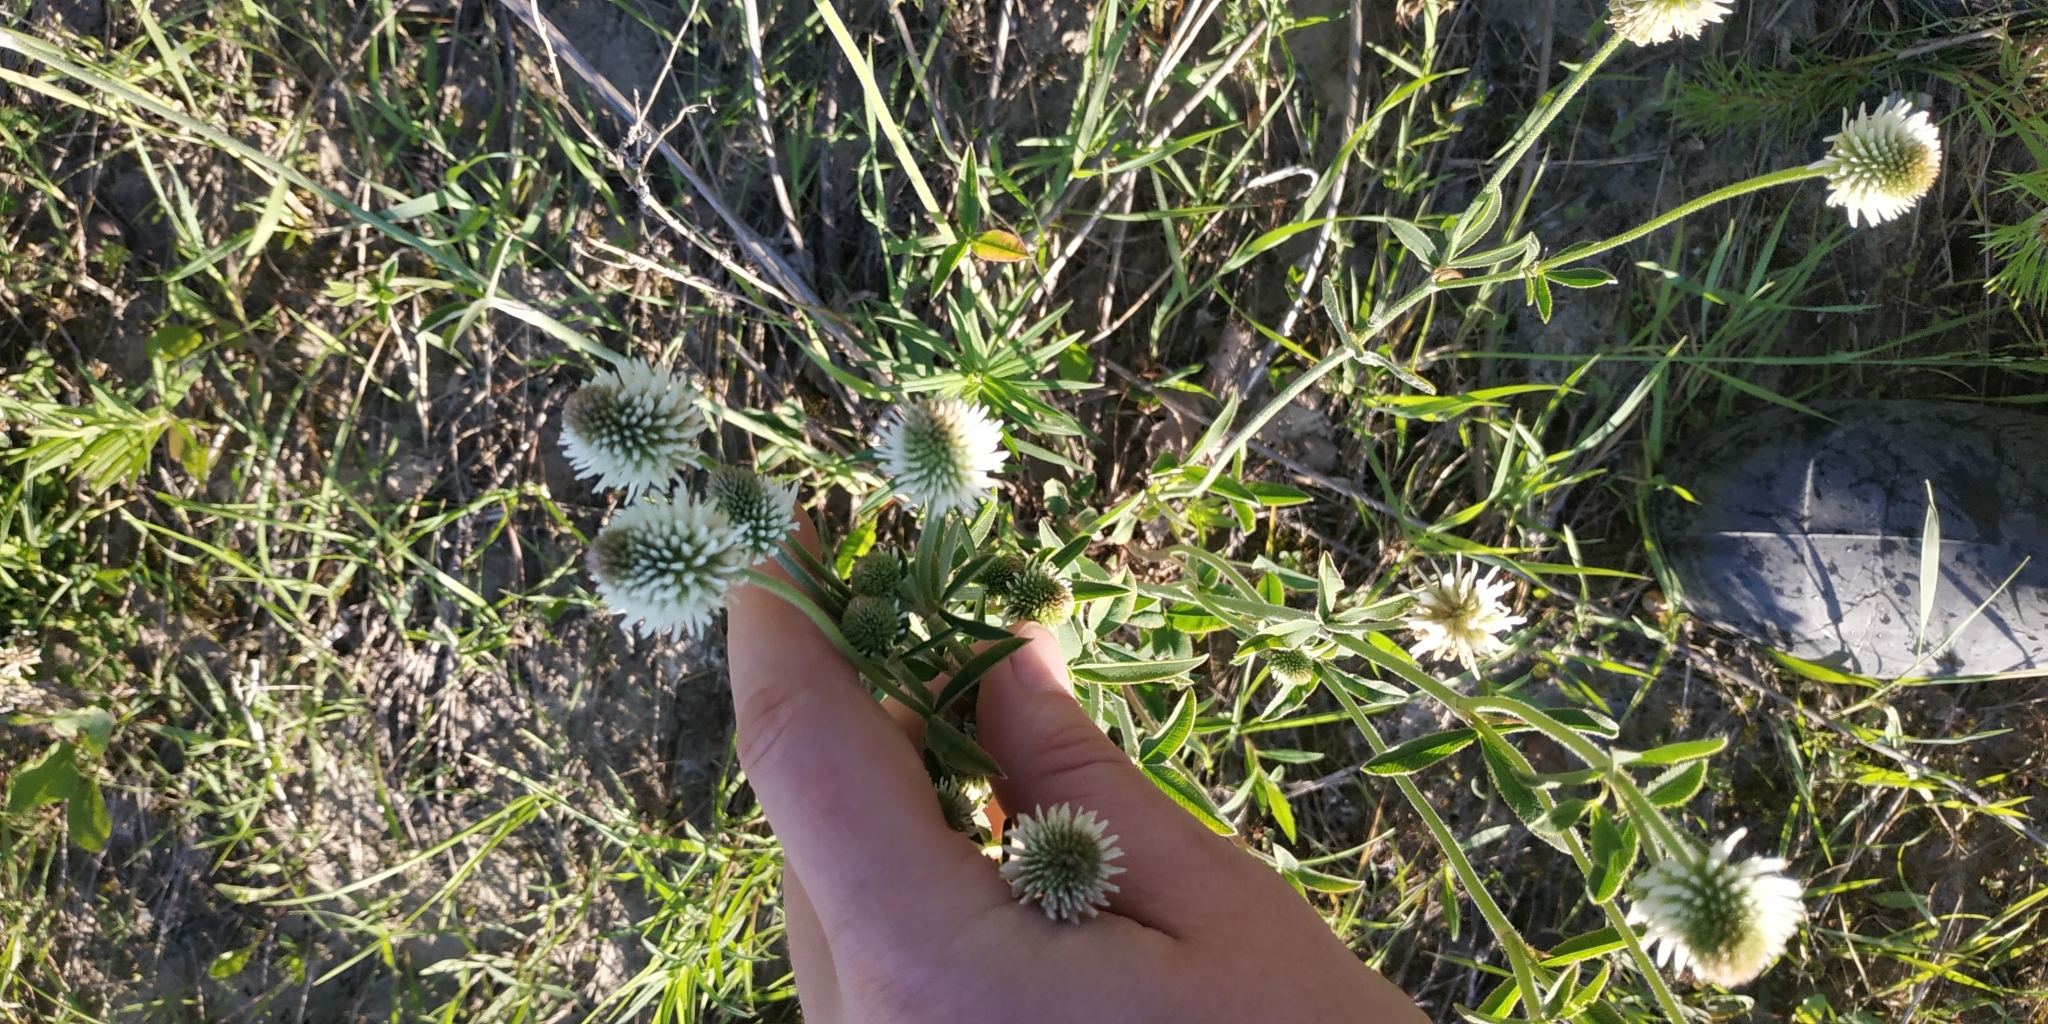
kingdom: Plantae
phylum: Tracheophyta
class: Magnoliopsida
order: Fabales
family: Fabaceae
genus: Trifolium
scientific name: Trifolium montanum
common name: Mountain clover
